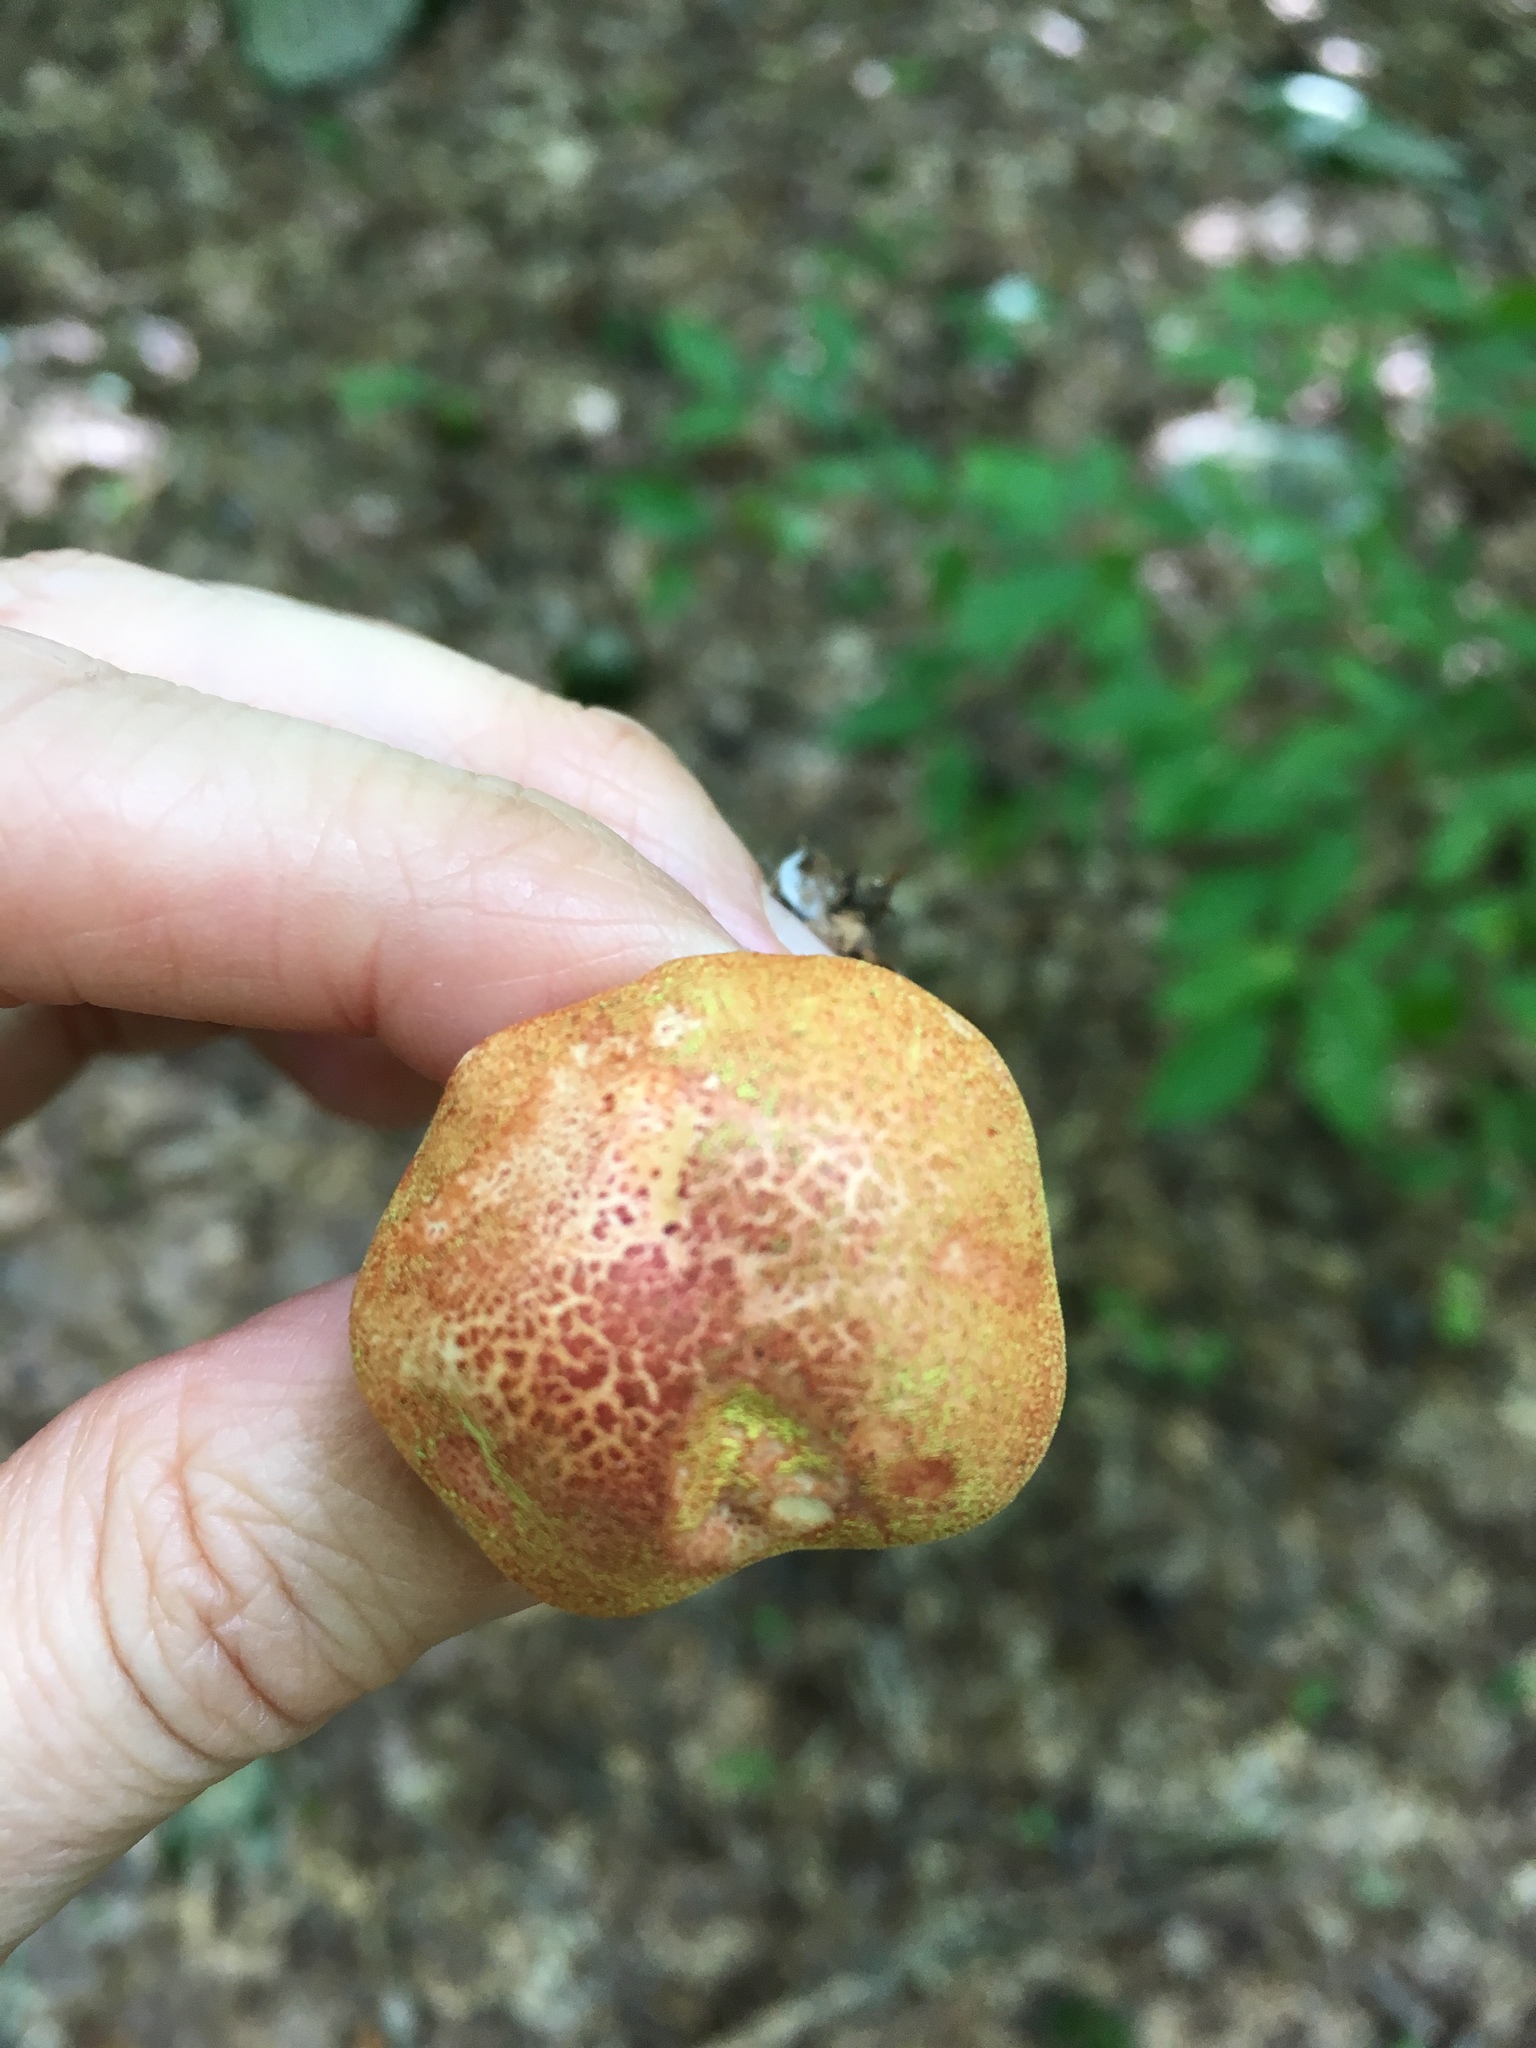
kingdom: Fungi
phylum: Basidiomycota
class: Agaricomycetes
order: Agaricales
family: Cortinariaceae
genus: Cortinarius
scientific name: Cortinarius bolaris
